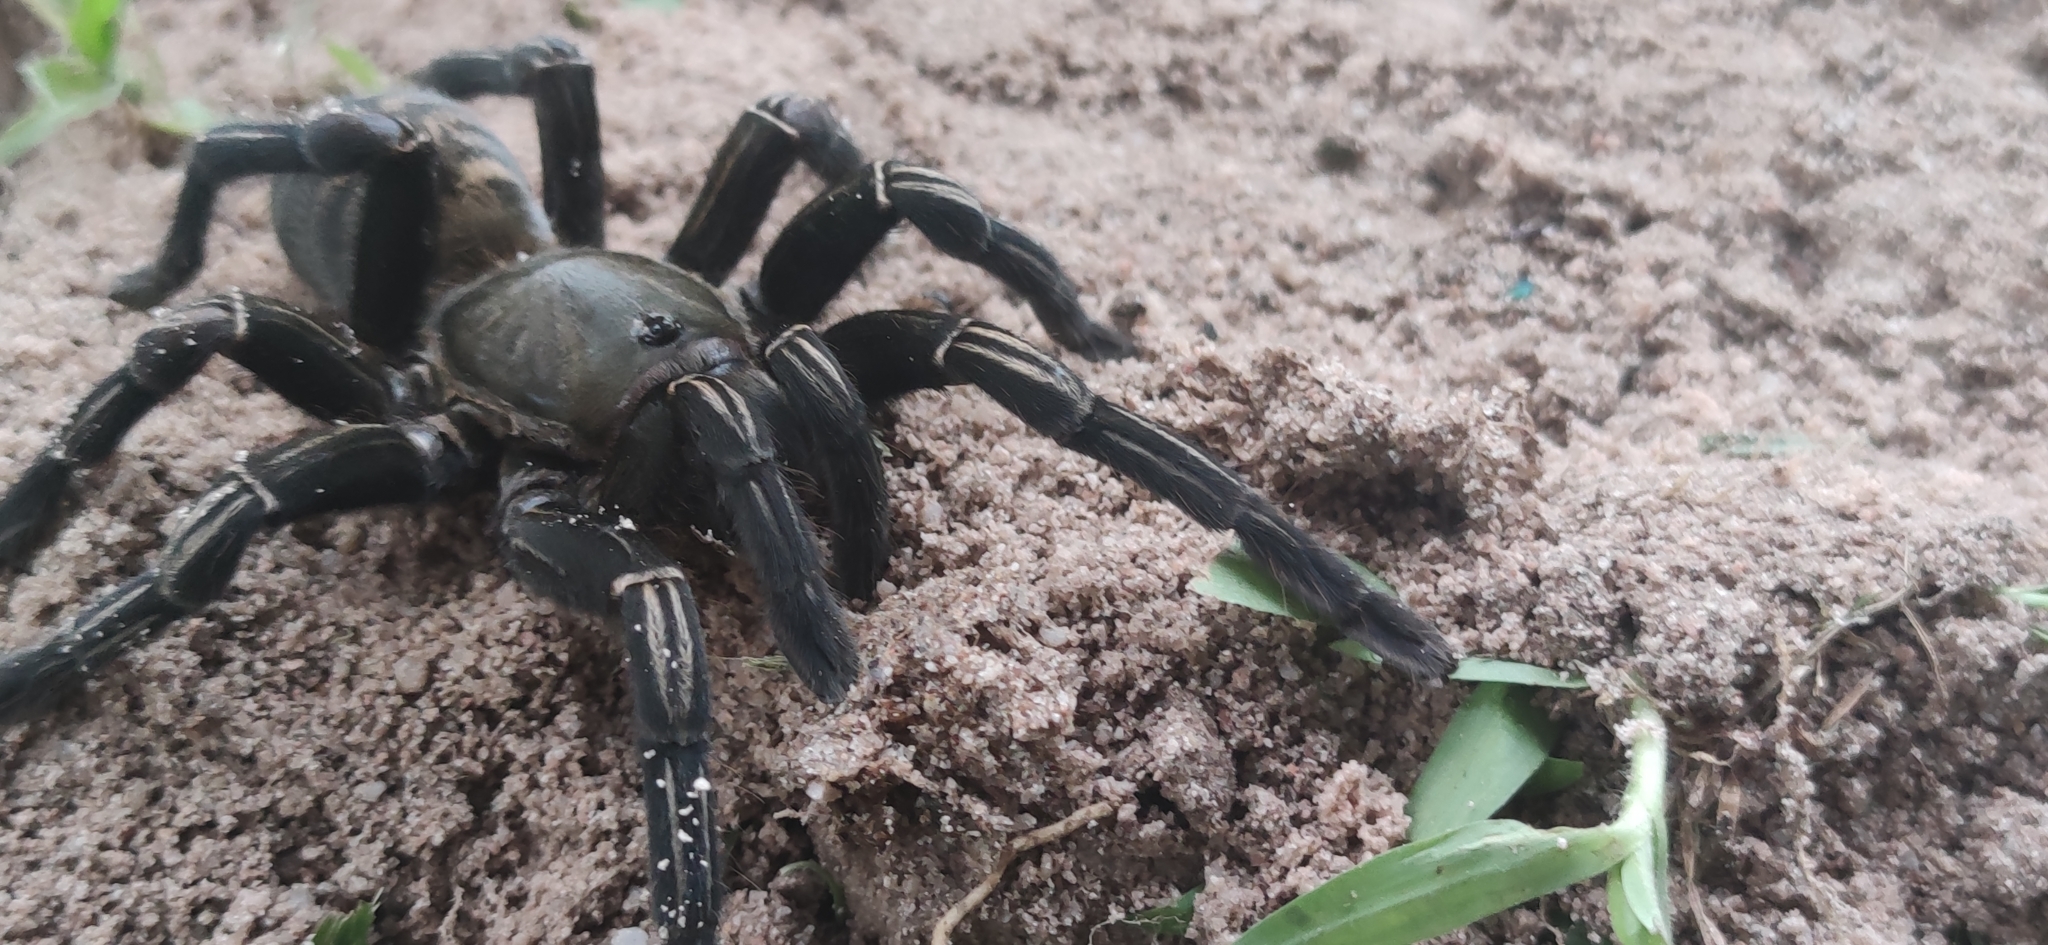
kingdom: Animalia
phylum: Arthropoda
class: Arachnida
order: Araneae
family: Theraphosidae
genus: Cyriopagopus
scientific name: Cyriopagopus albostriatus
